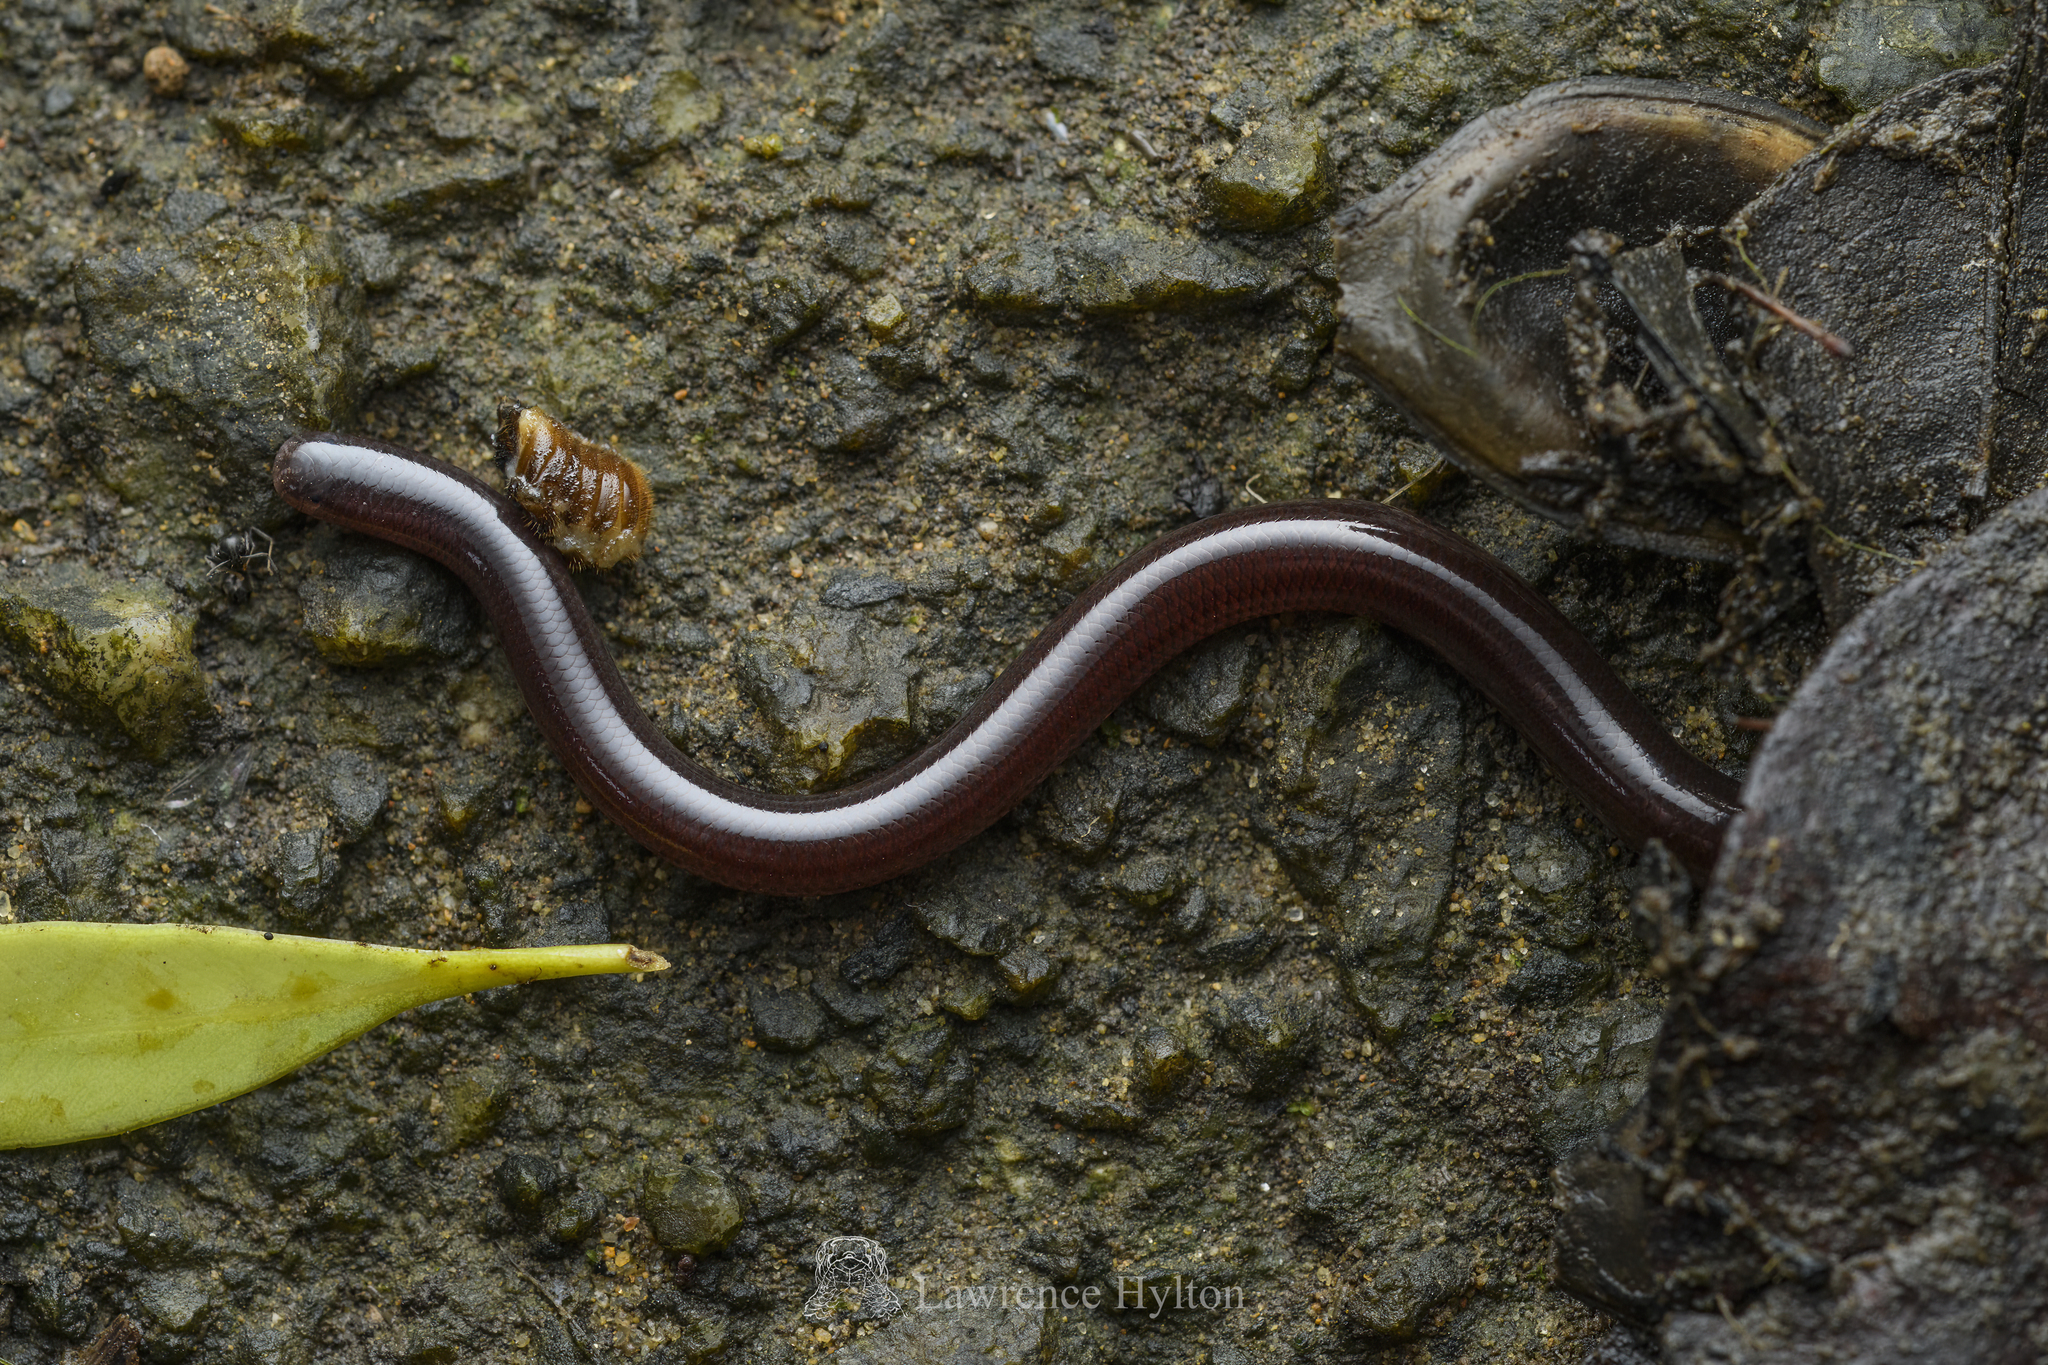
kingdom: Animalia
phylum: Chordata
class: Squamata
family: Typhlopidae
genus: Indotyphlops
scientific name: Indotyphlops braminus
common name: Brahminy blindsnake
